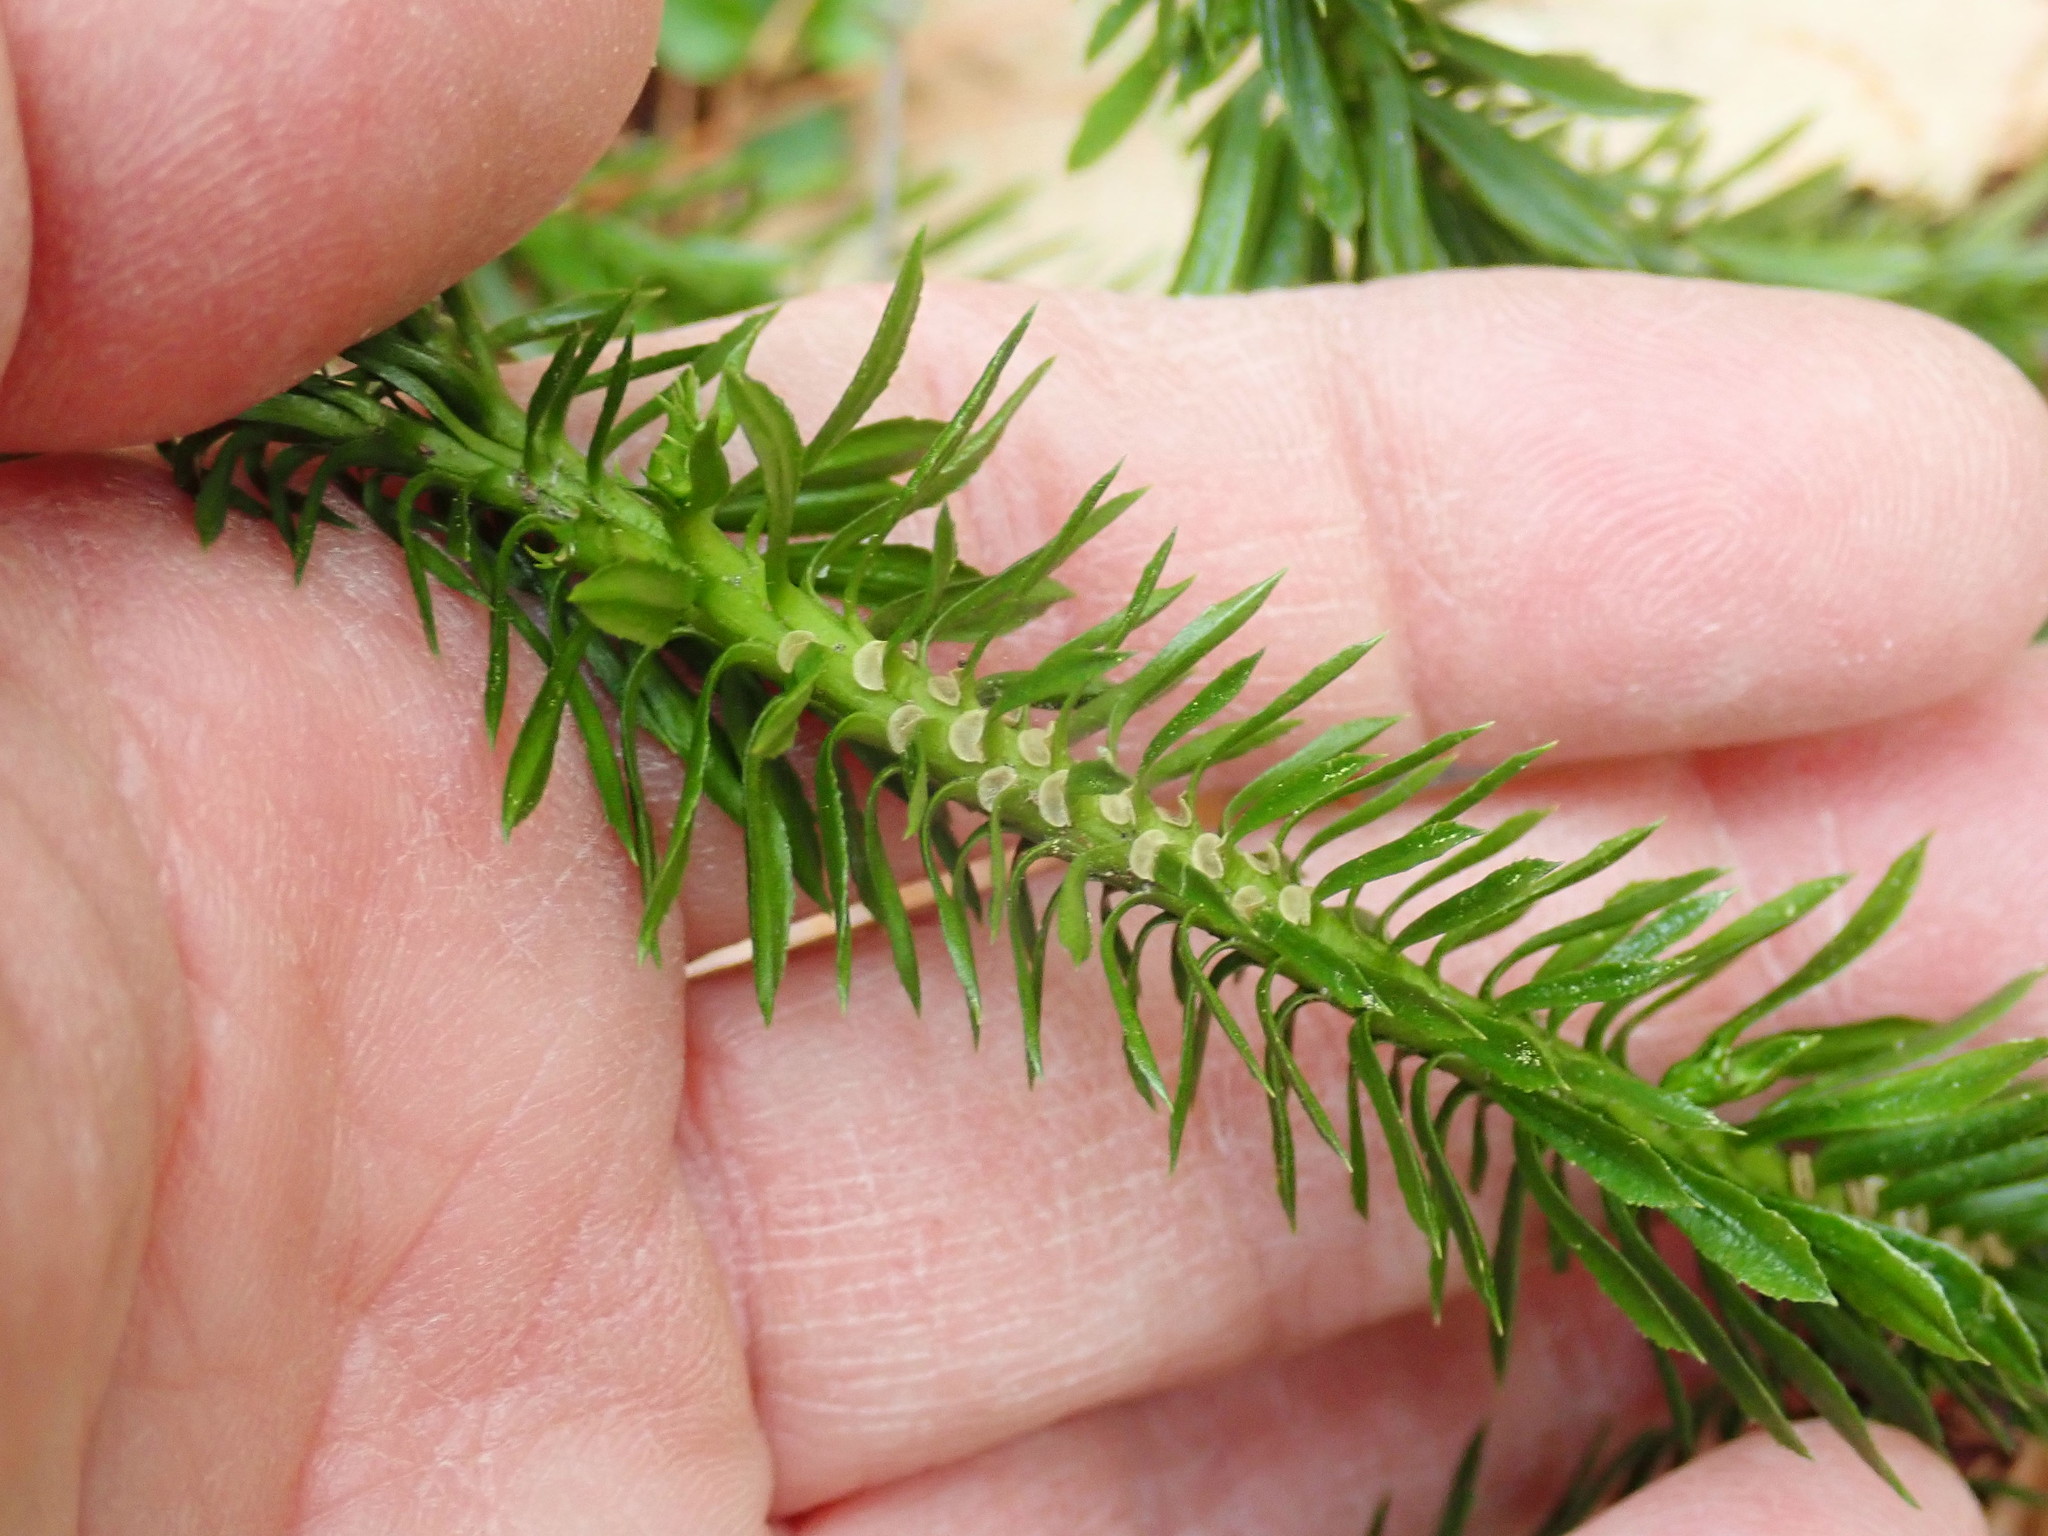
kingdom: Plantae
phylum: Tracheophyta
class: Lycopodiopsida
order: Lycopodiales
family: Lycopodiaceae
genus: Huperzia
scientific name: Huperzia lucidula
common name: Shining clubmoss
